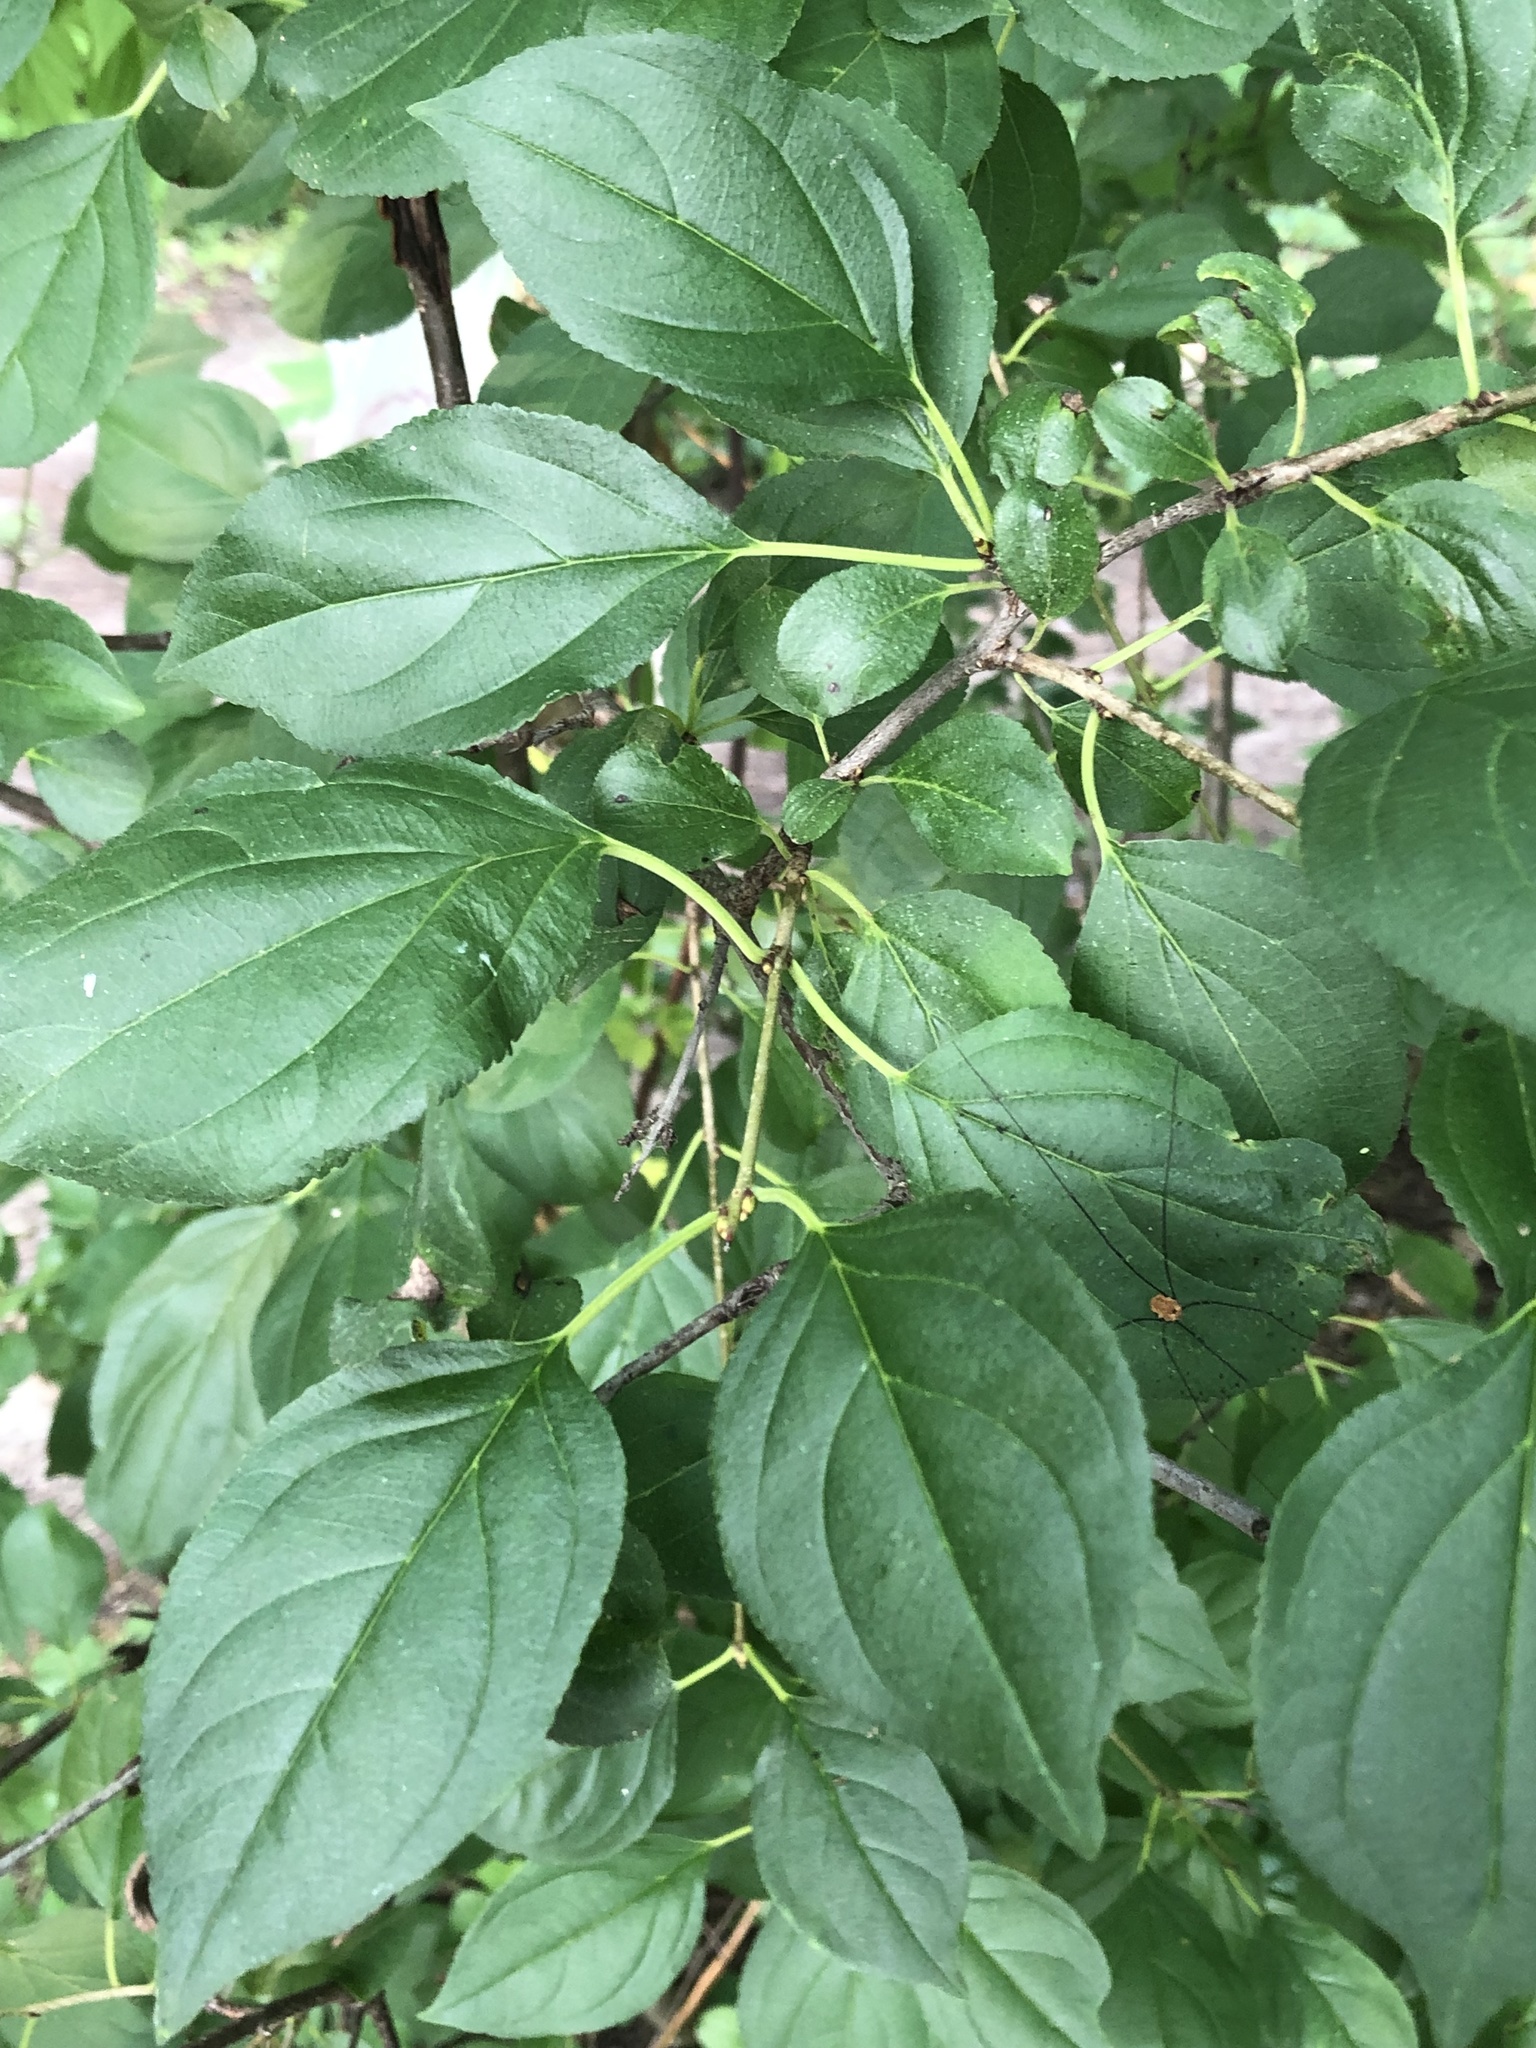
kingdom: Plantae
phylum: Tracheophyta
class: Magnoliopsida
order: Rosales
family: Rhamnaceae
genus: Rhamnus
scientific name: Rhamnus cathartica
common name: Common buckthorn
